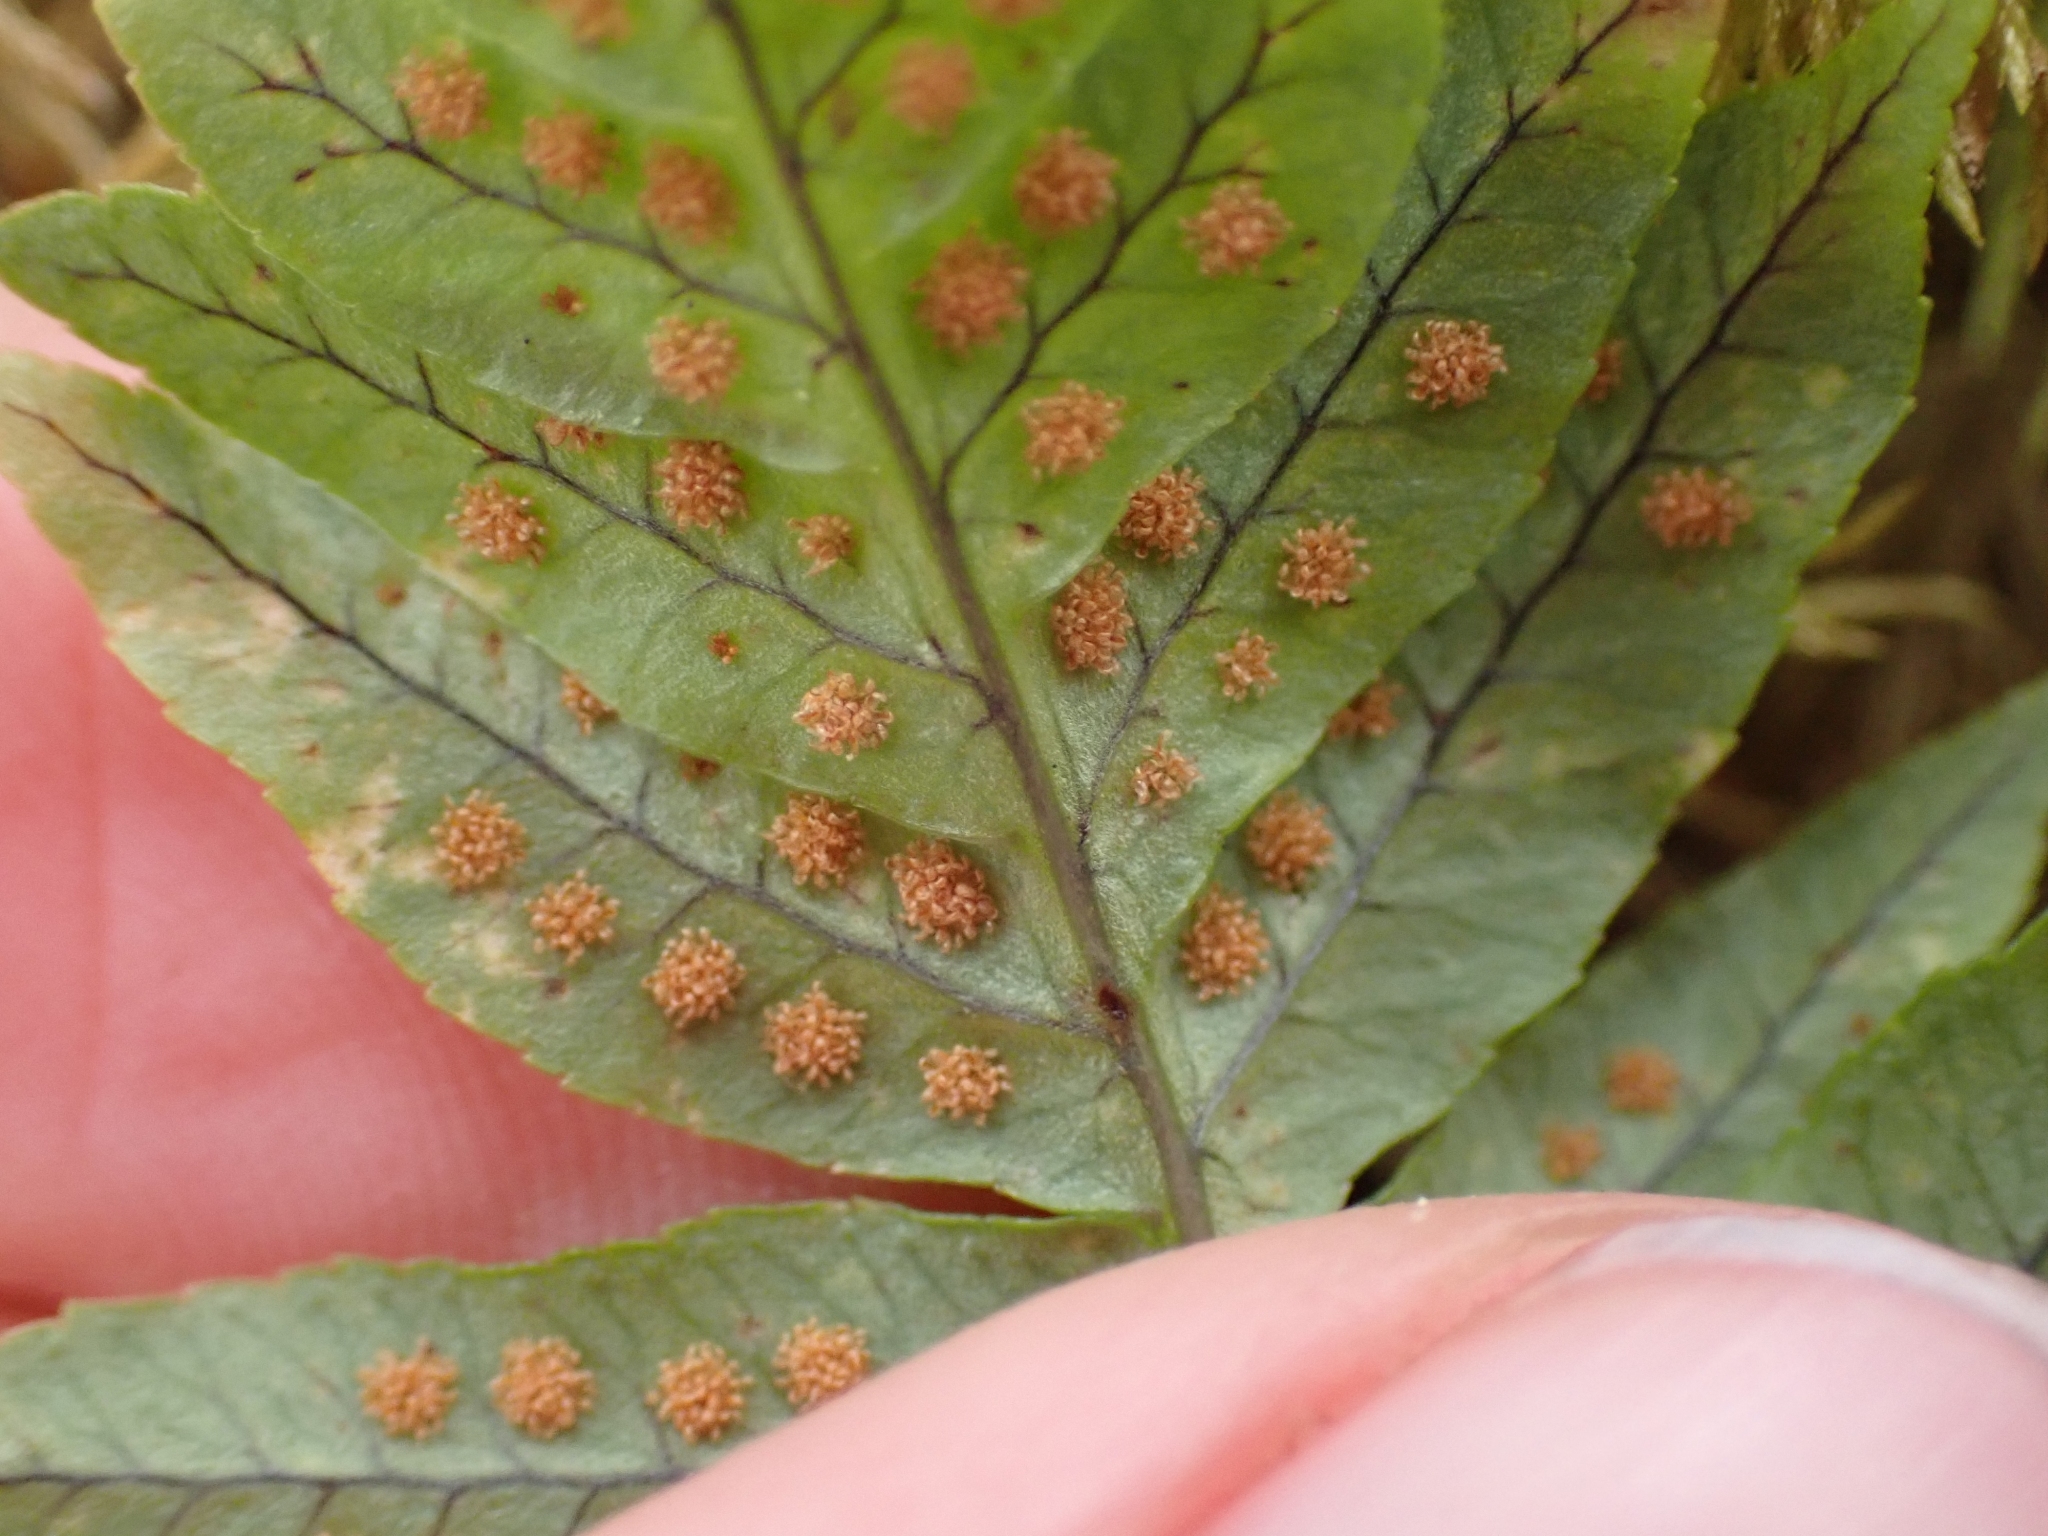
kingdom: Plantae
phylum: Tracheophyta
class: Polypodiopsida
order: Polypodiales
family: Polypodiaceae
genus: Polypodium
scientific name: Polypodium glycyrrhiza
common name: Licorice fern
